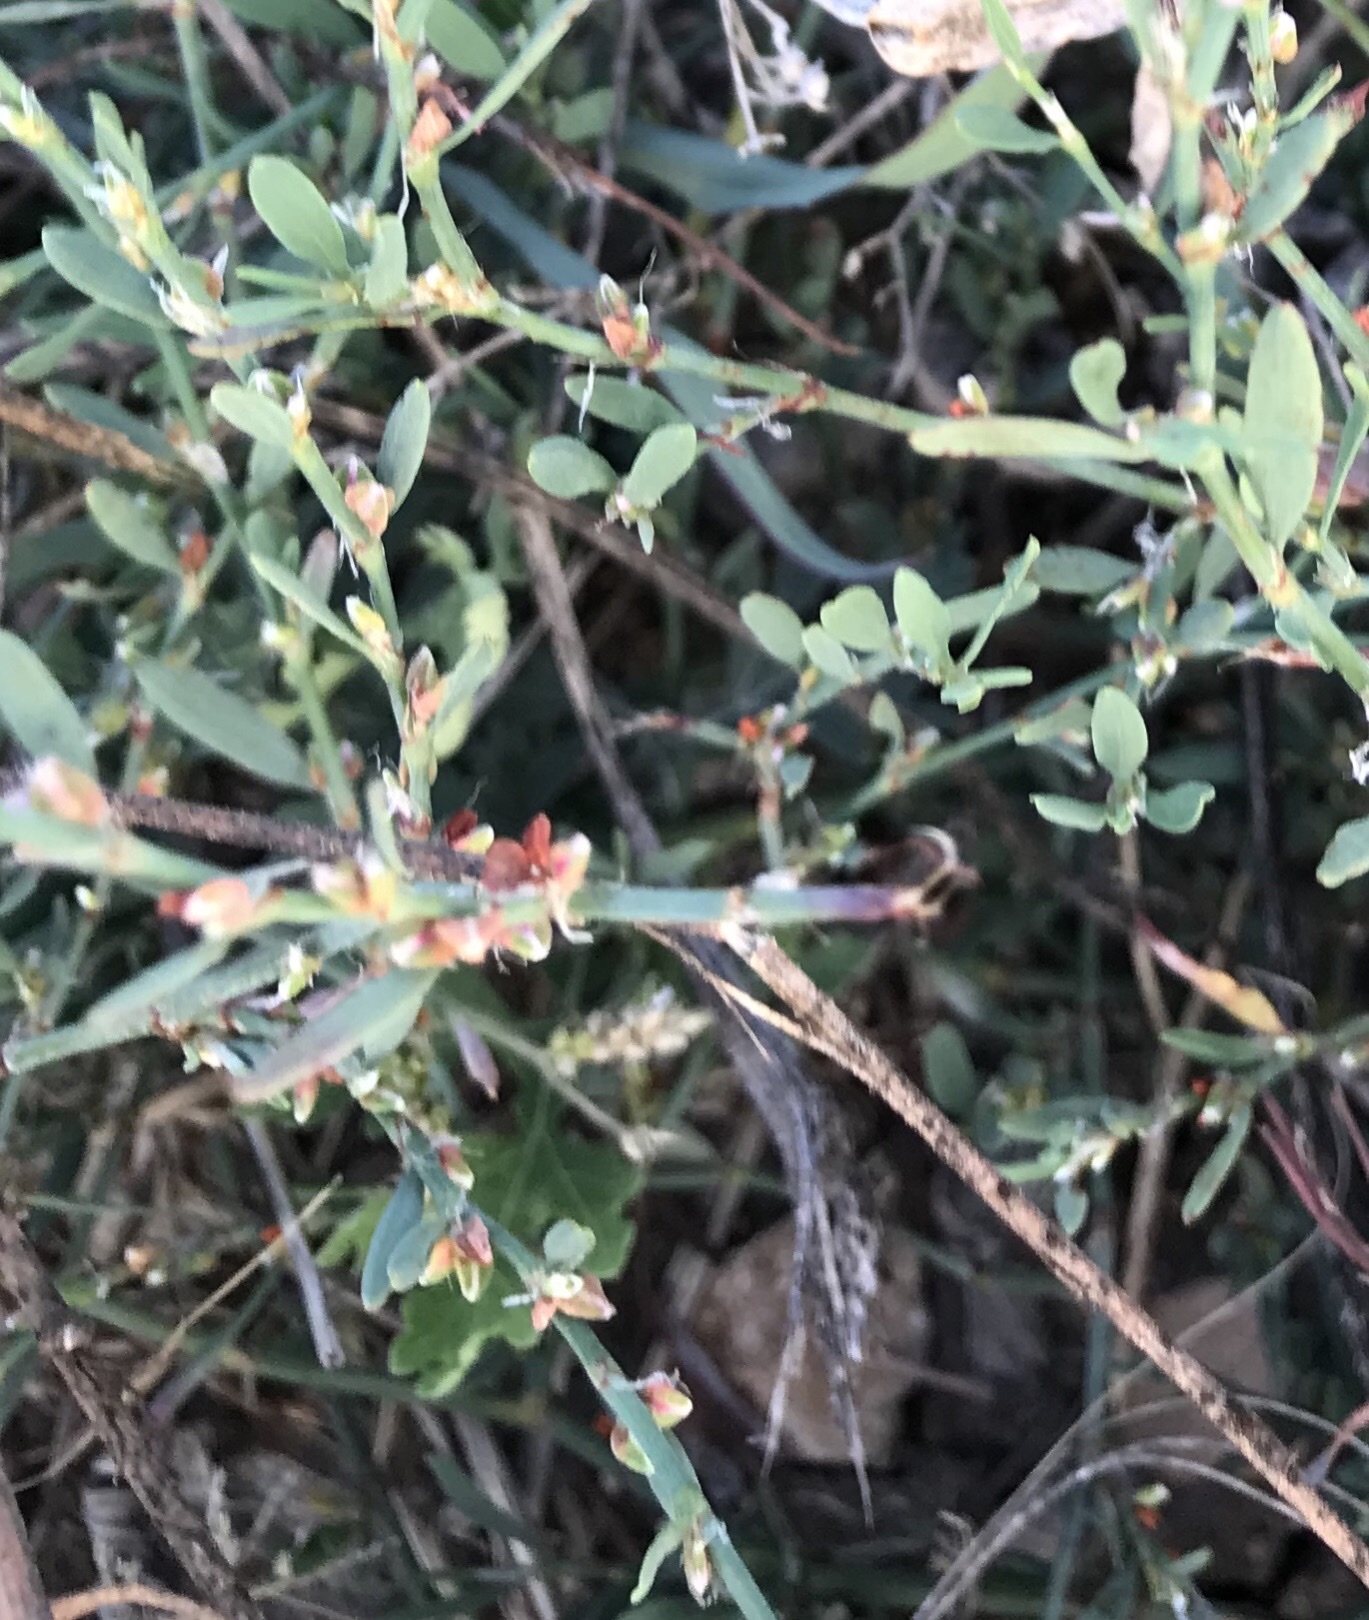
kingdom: Plantae
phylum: Tracheophyta
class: Magnoliopsida
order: Caryophyllales
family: Polygonaceae
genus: Polygonum
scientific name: Polygonum aviculare
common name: Prostrate knotweed
